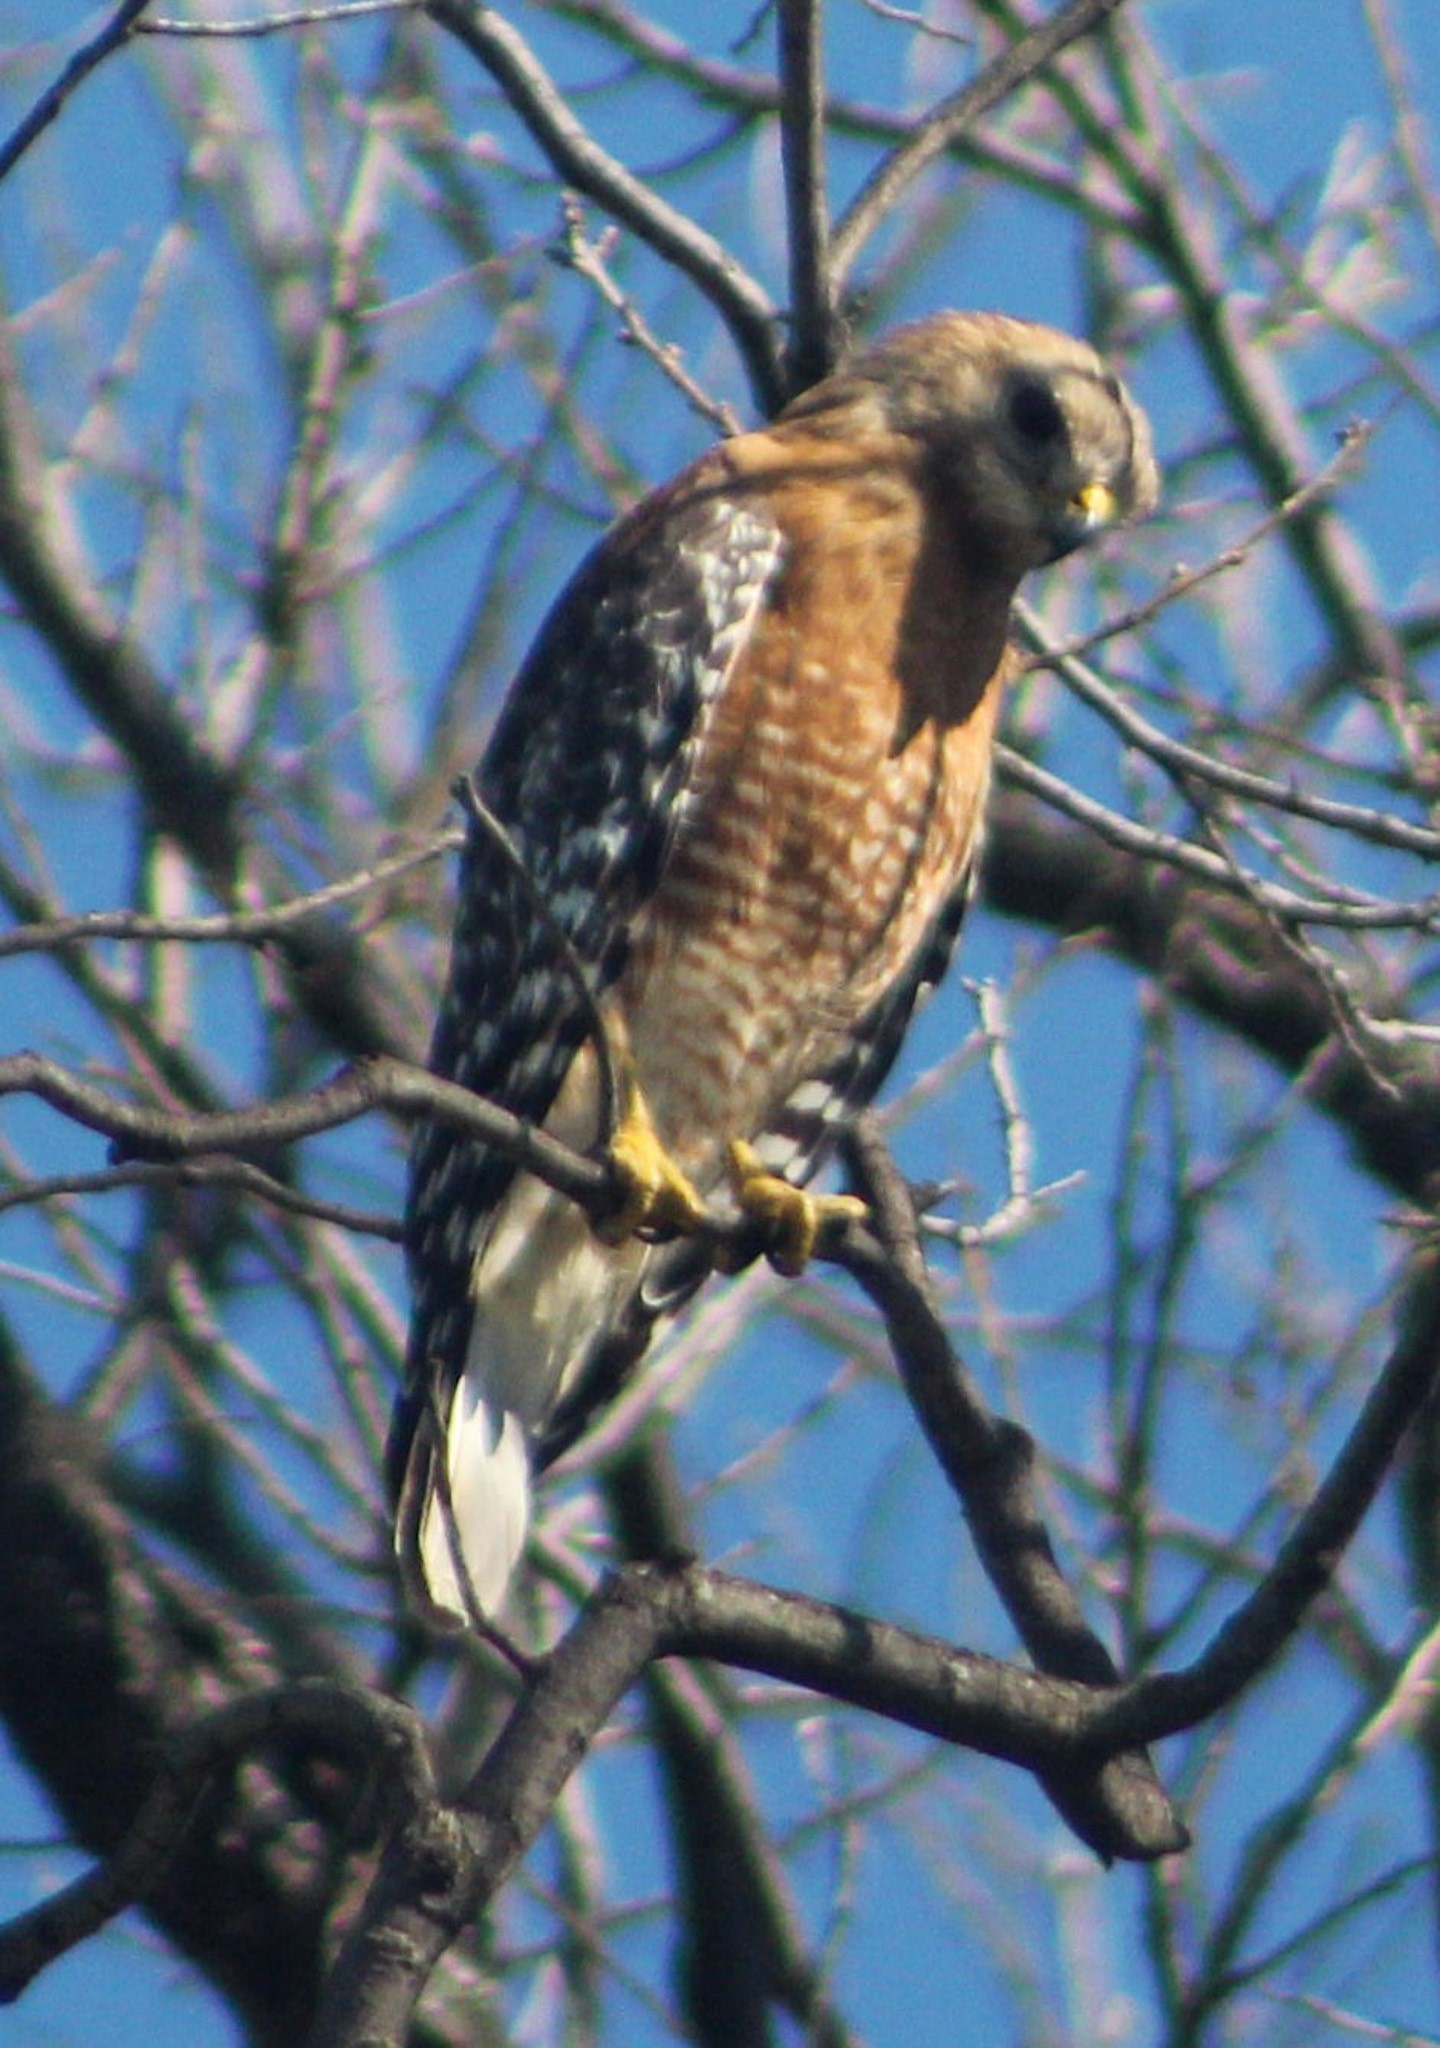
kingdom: Animalia
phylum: Chordata
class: Aves
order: Accipitriformes
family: Accipitridae
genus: Buteo
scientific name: Buteo lineatus
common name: Red-shouldered hawk
